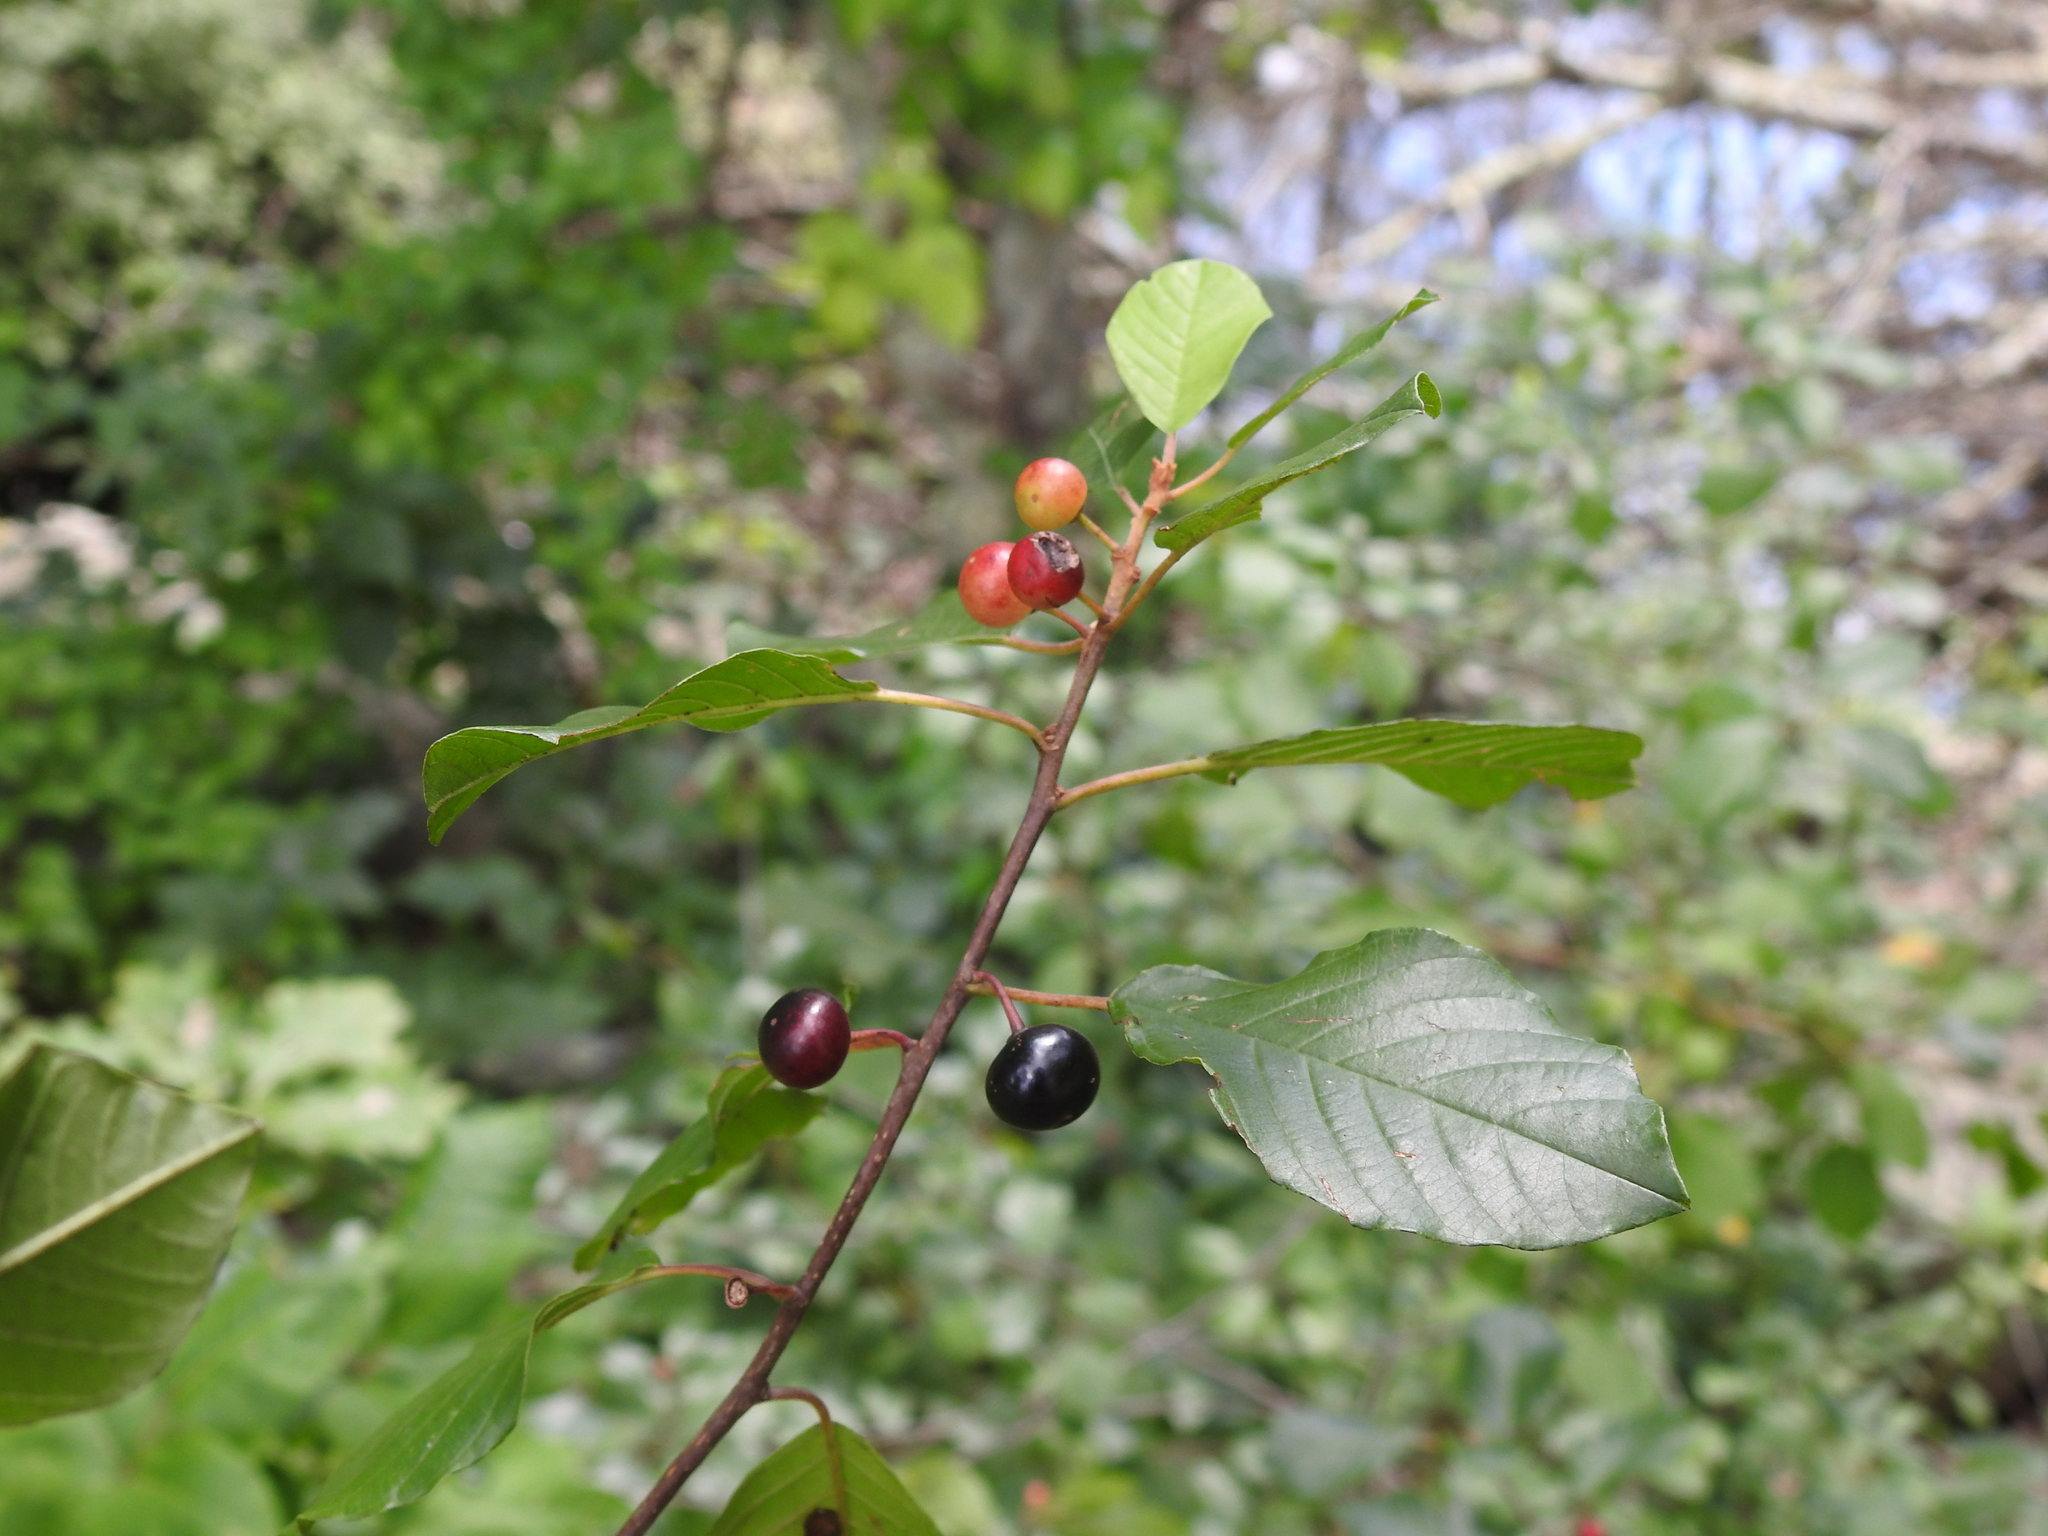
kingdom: Plantae
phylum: Tracheophyta
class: Magnoliopsida
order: Rosales
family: Rhamnaceae
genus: Frangula
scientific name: Frangula alnus
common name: Alder buckthorn
